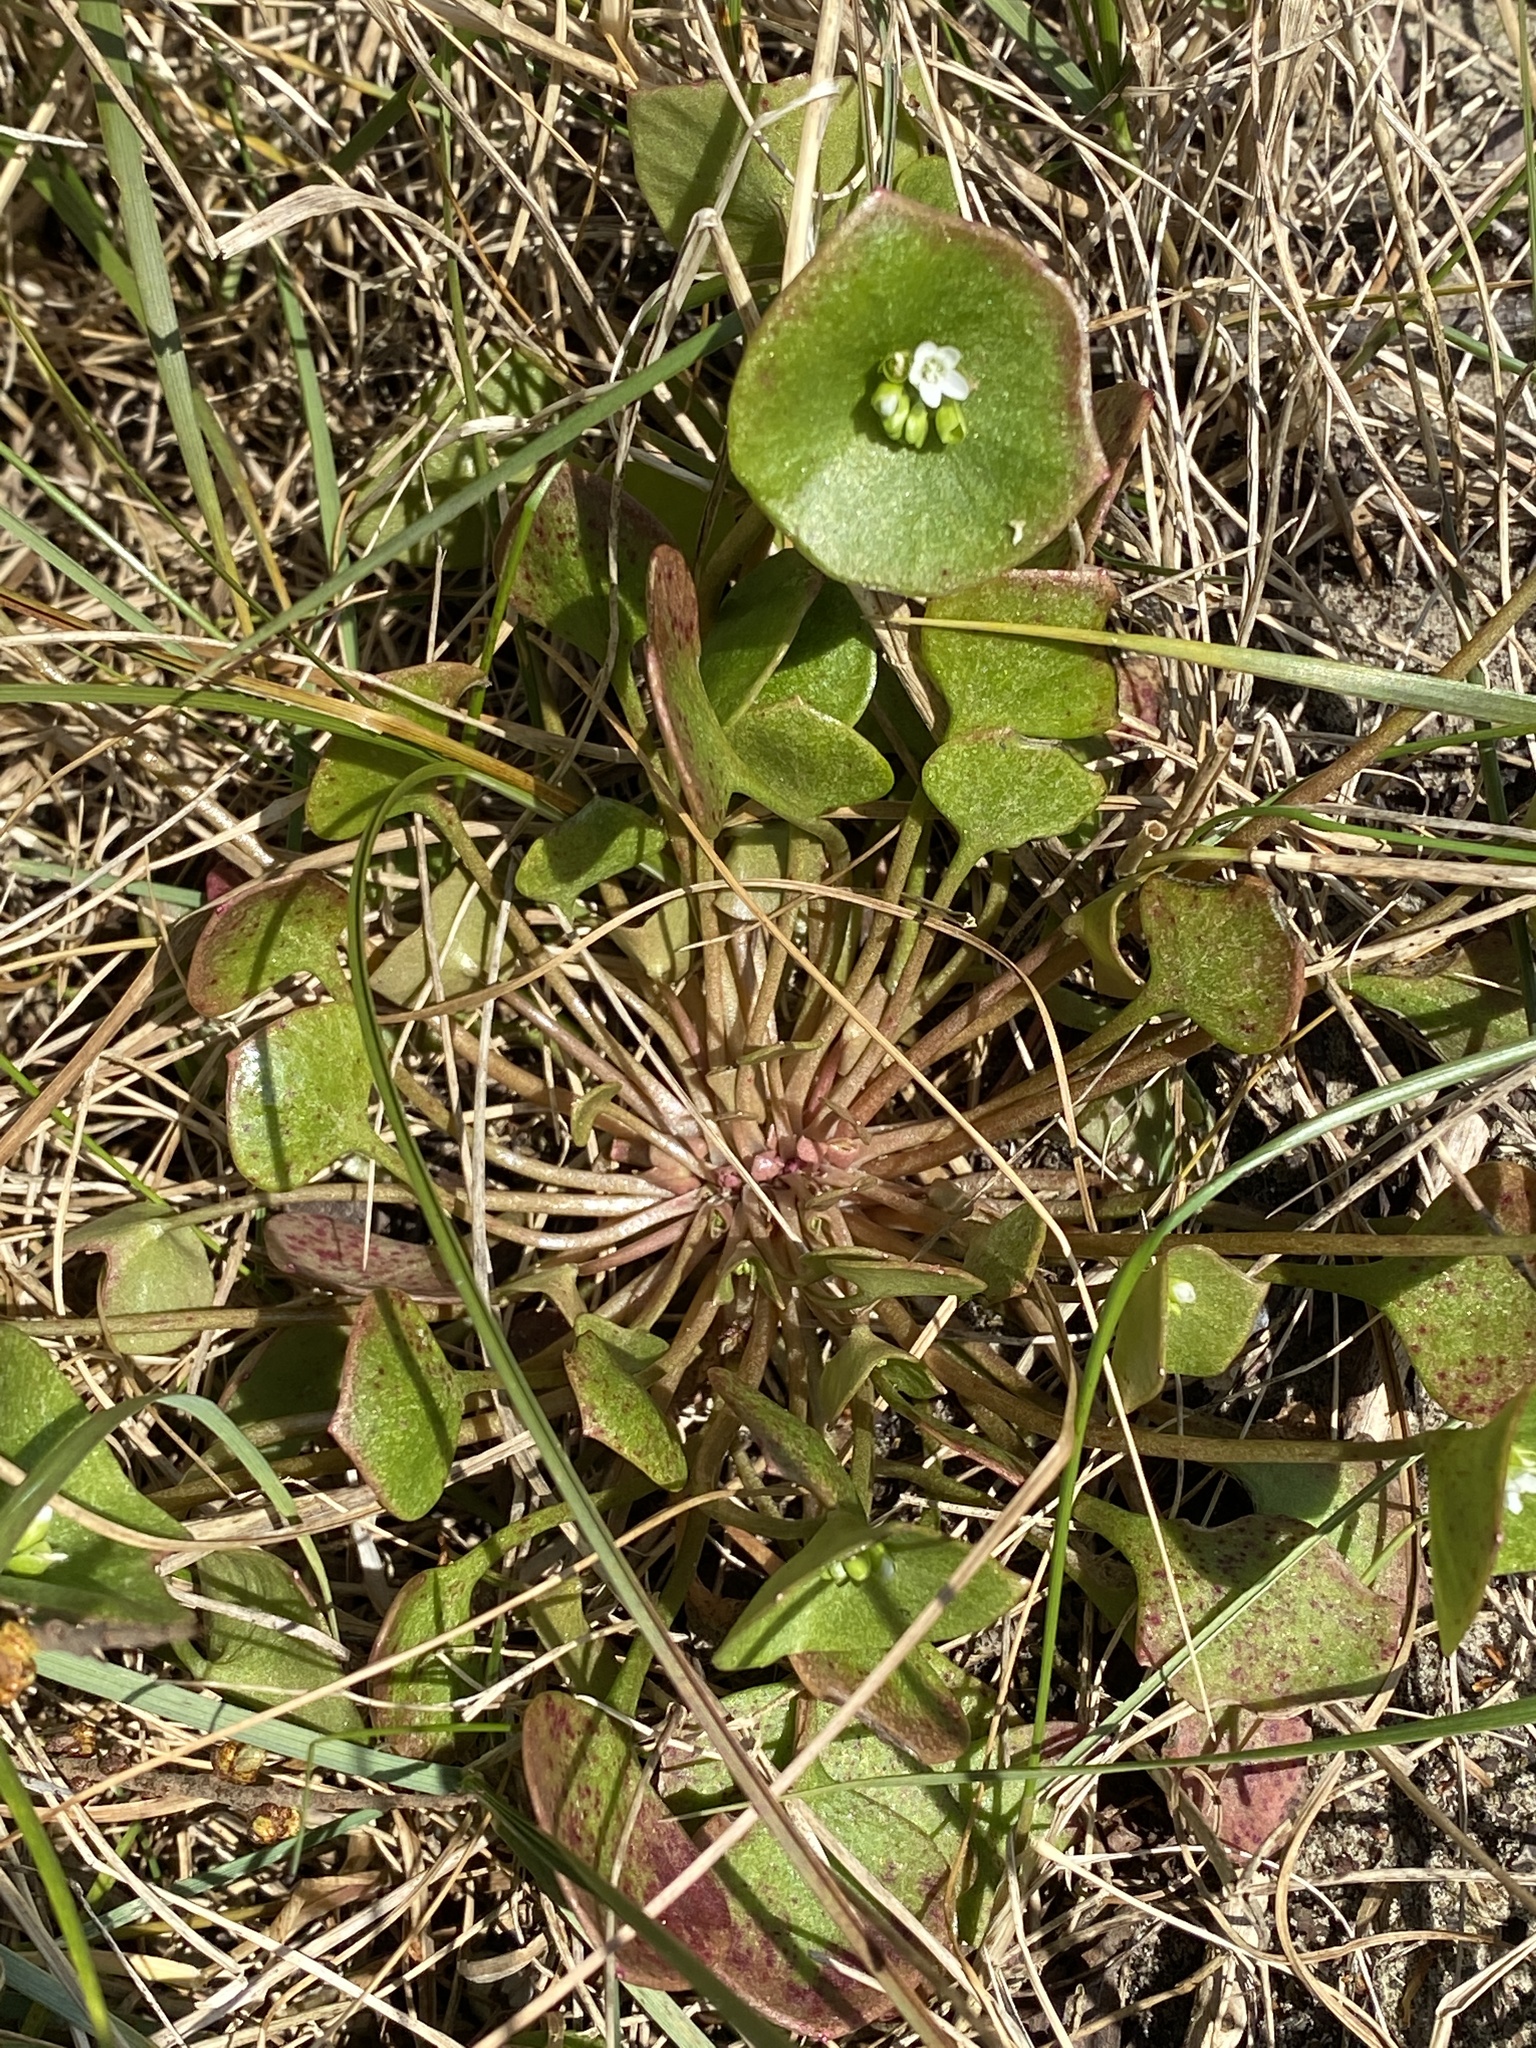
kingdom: Plantae
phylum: Tracheophyta
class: Magnoliopsida
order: Caryophyllales
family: Montiaceae
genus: Claytonia
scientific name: Claytonia perfoliata
